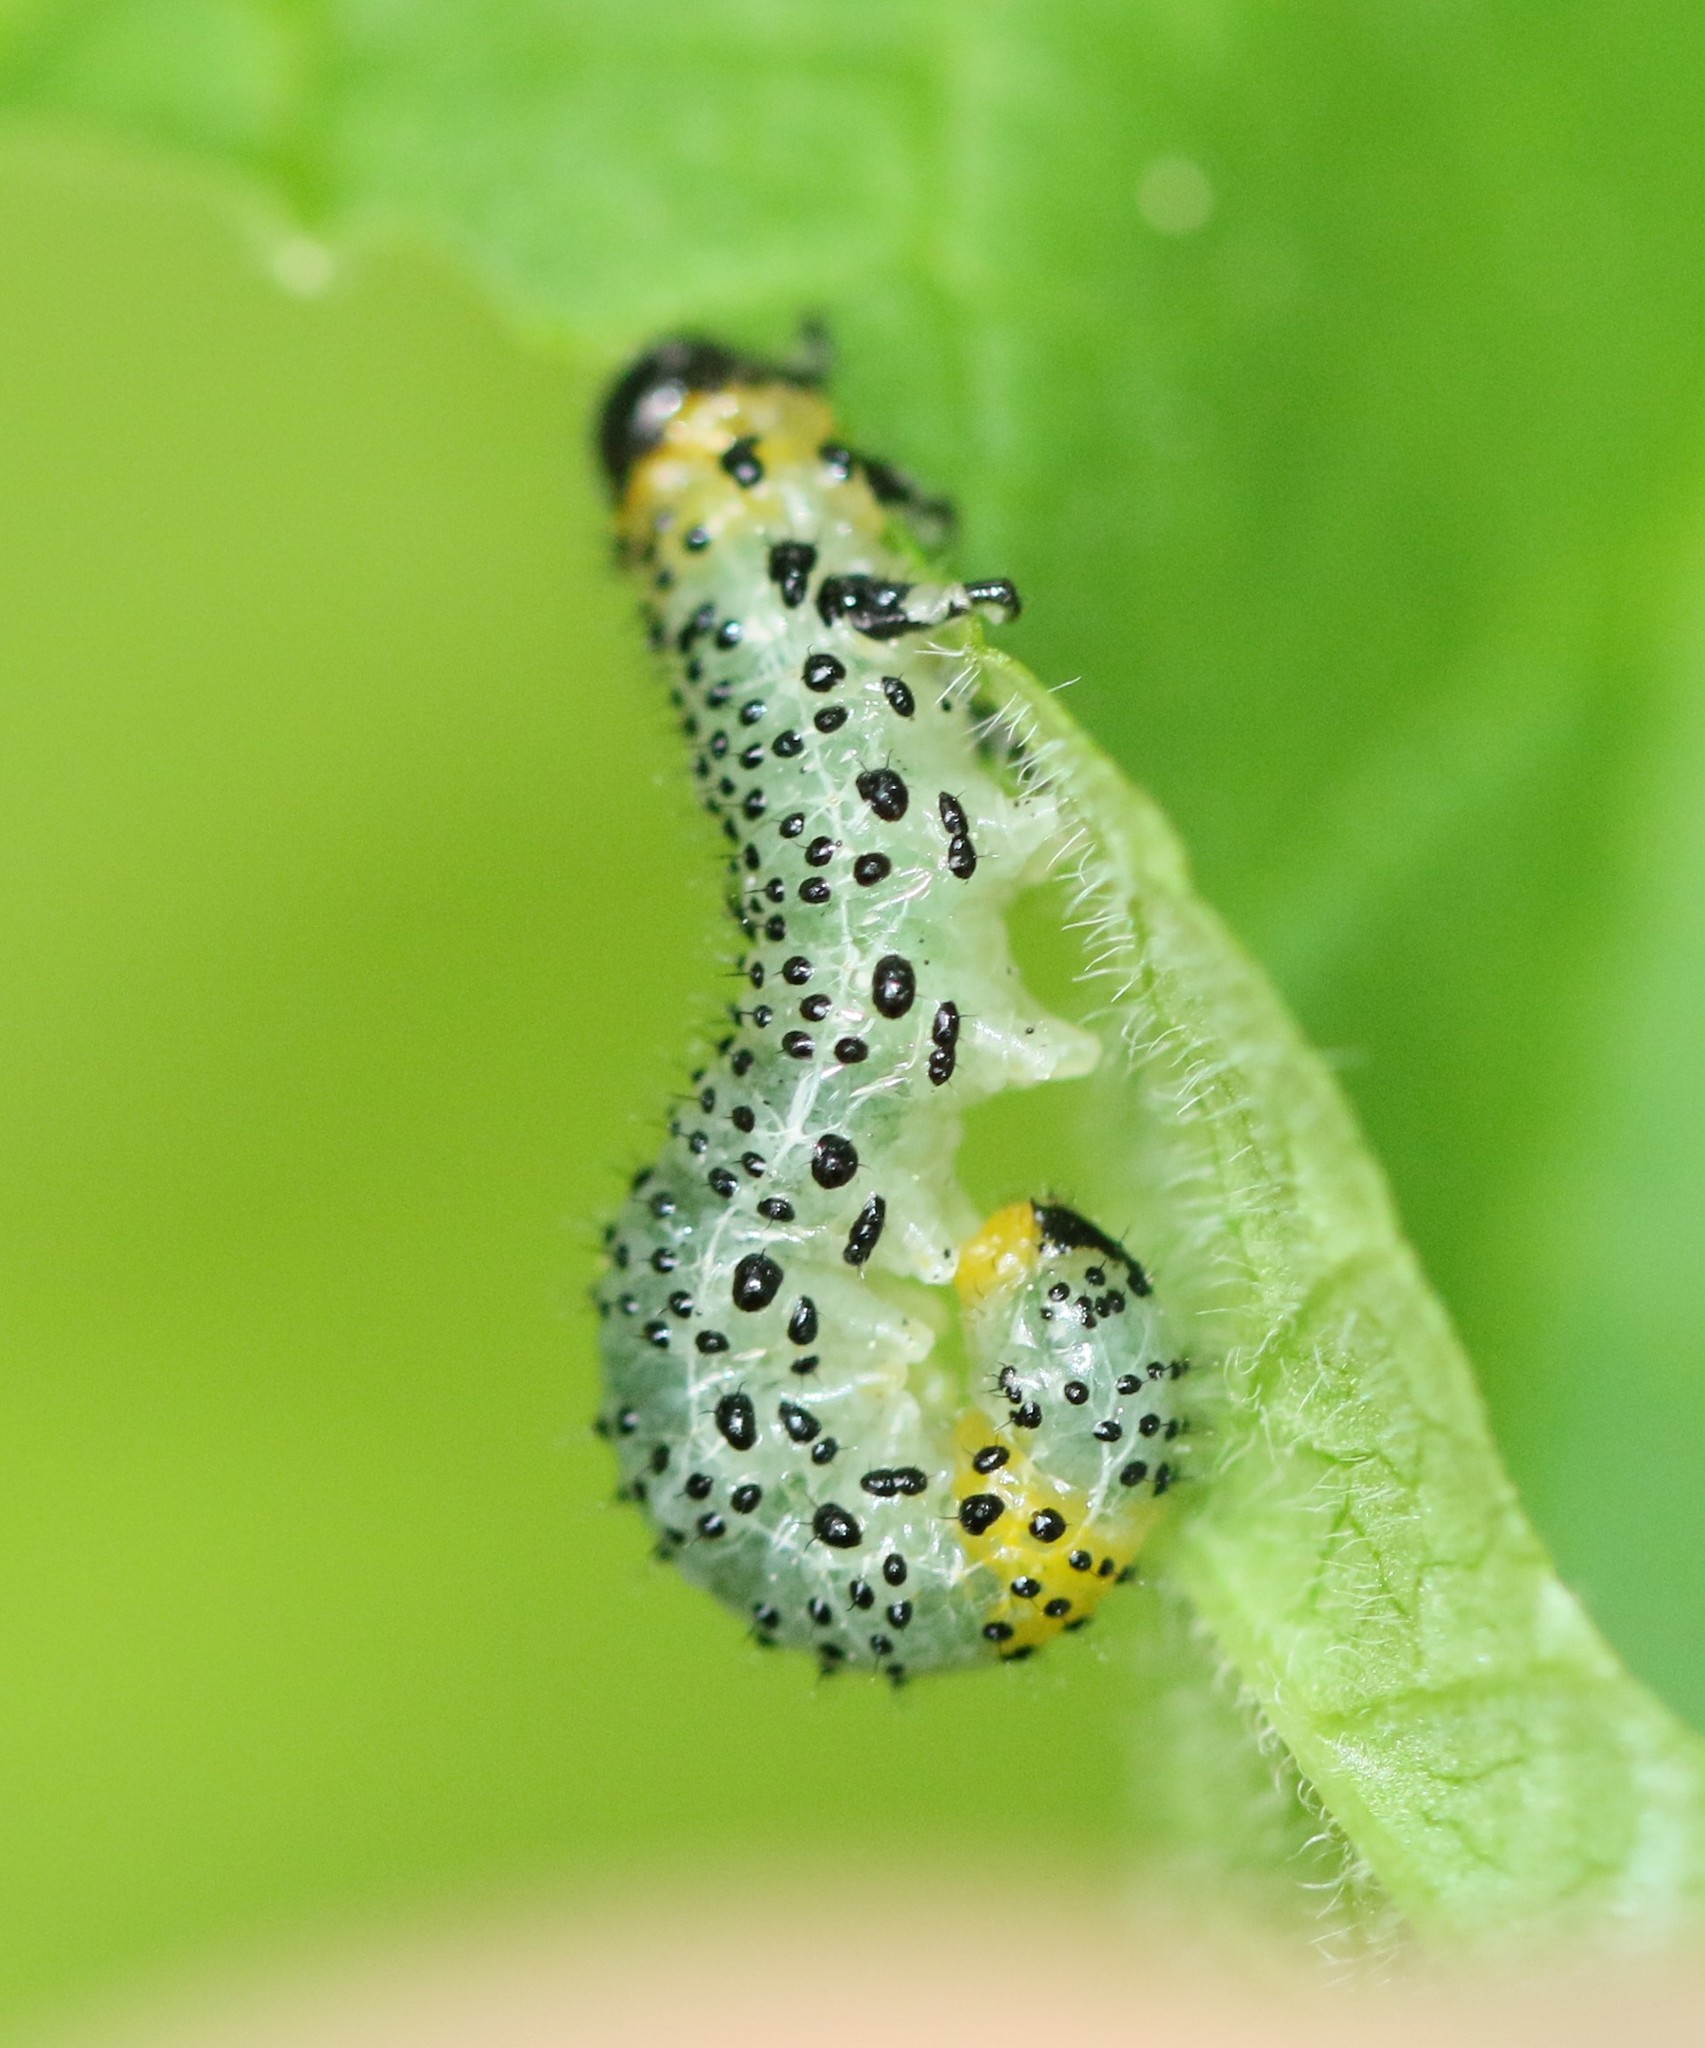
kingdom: Animalia
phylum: Arthropoda
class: Insecta
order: Hymenoptera
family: Tenthredinidae
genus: Nematus
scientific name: Nematus ribesii
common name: Imported currantworm
